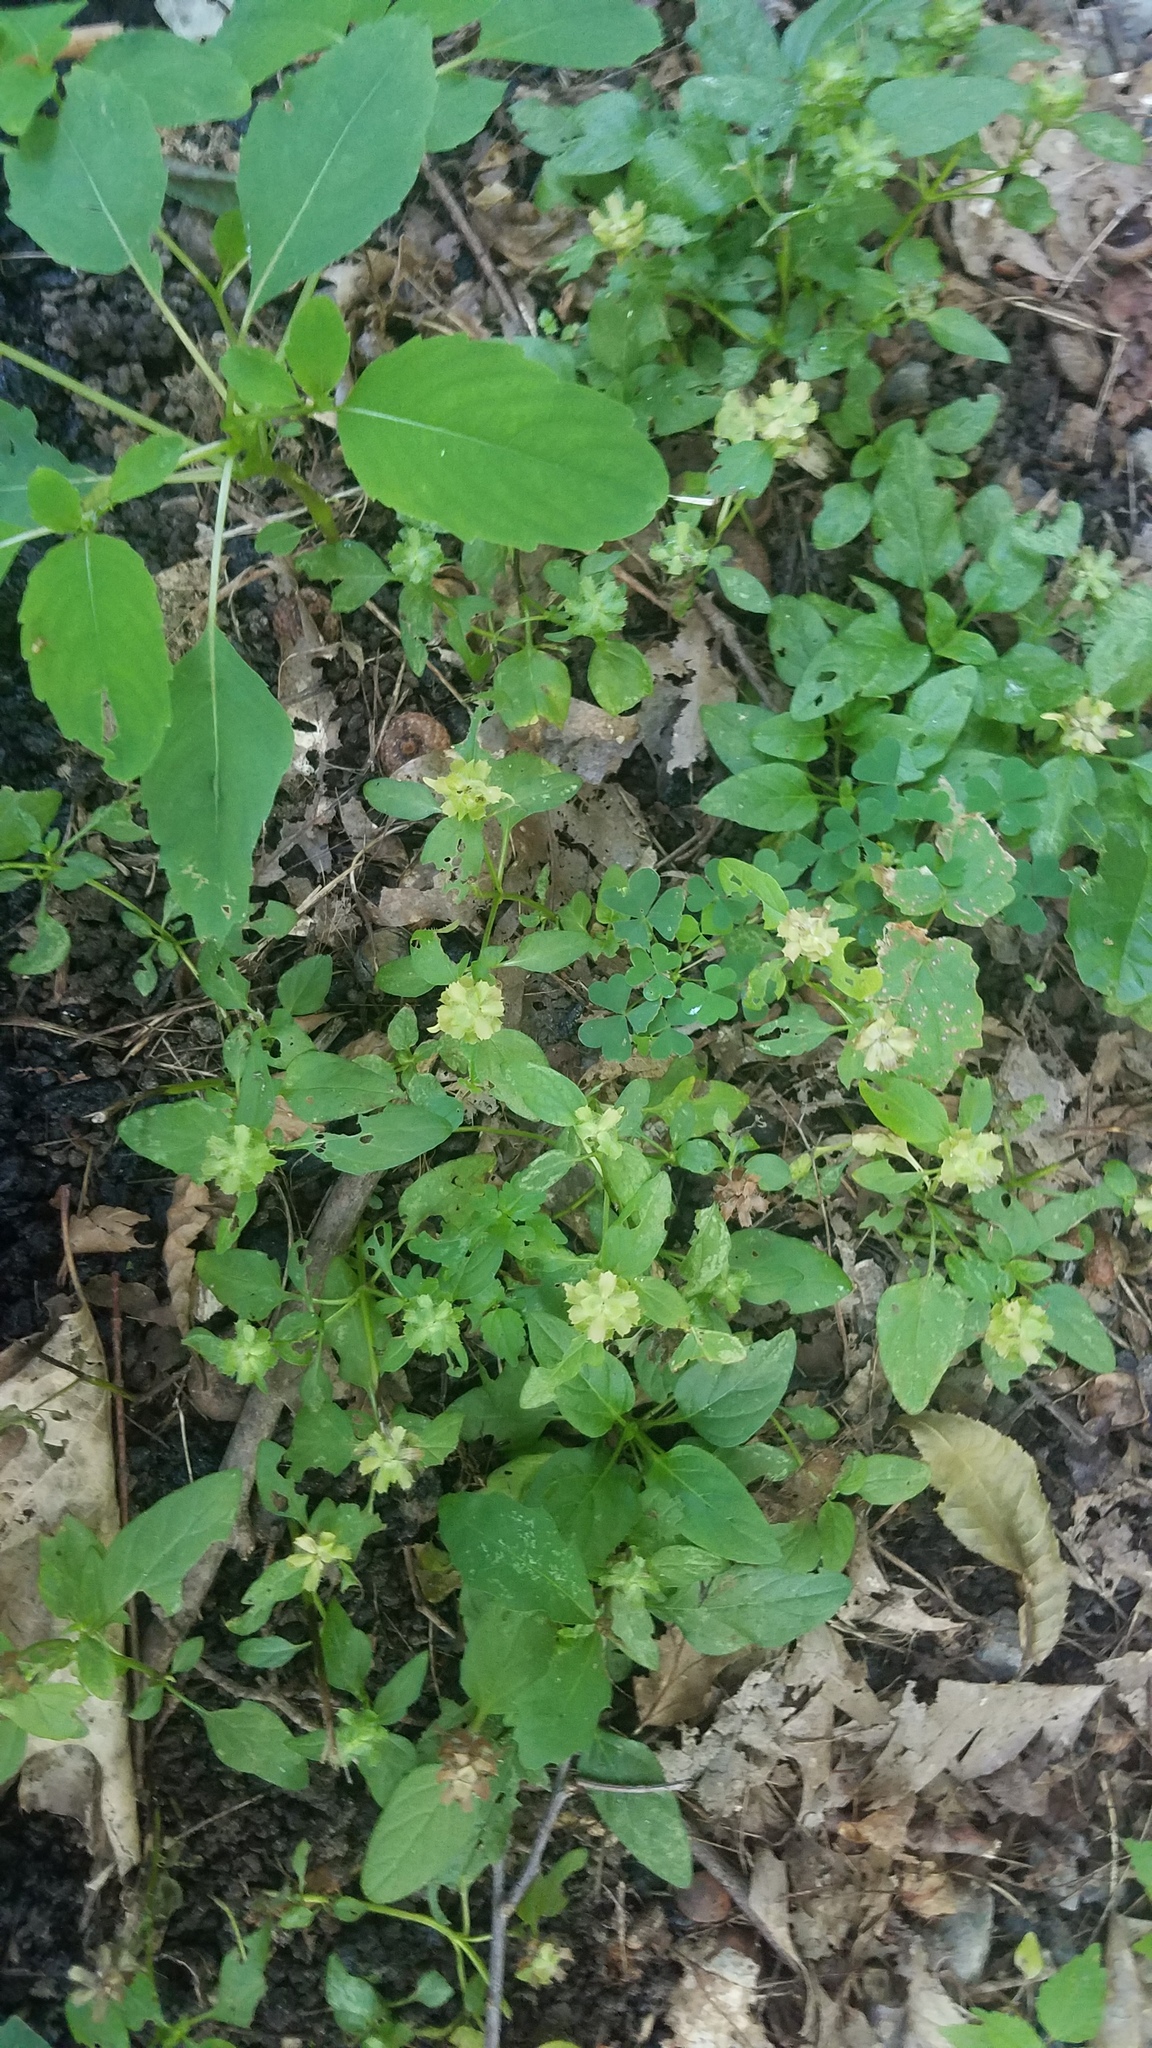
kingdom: Plantae
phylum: Tracheophyta
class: Magnoliopsida
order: Lamiales
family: Lamiaceae
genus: Prunella
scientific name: Prunella vulgaris
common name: Heal-all
